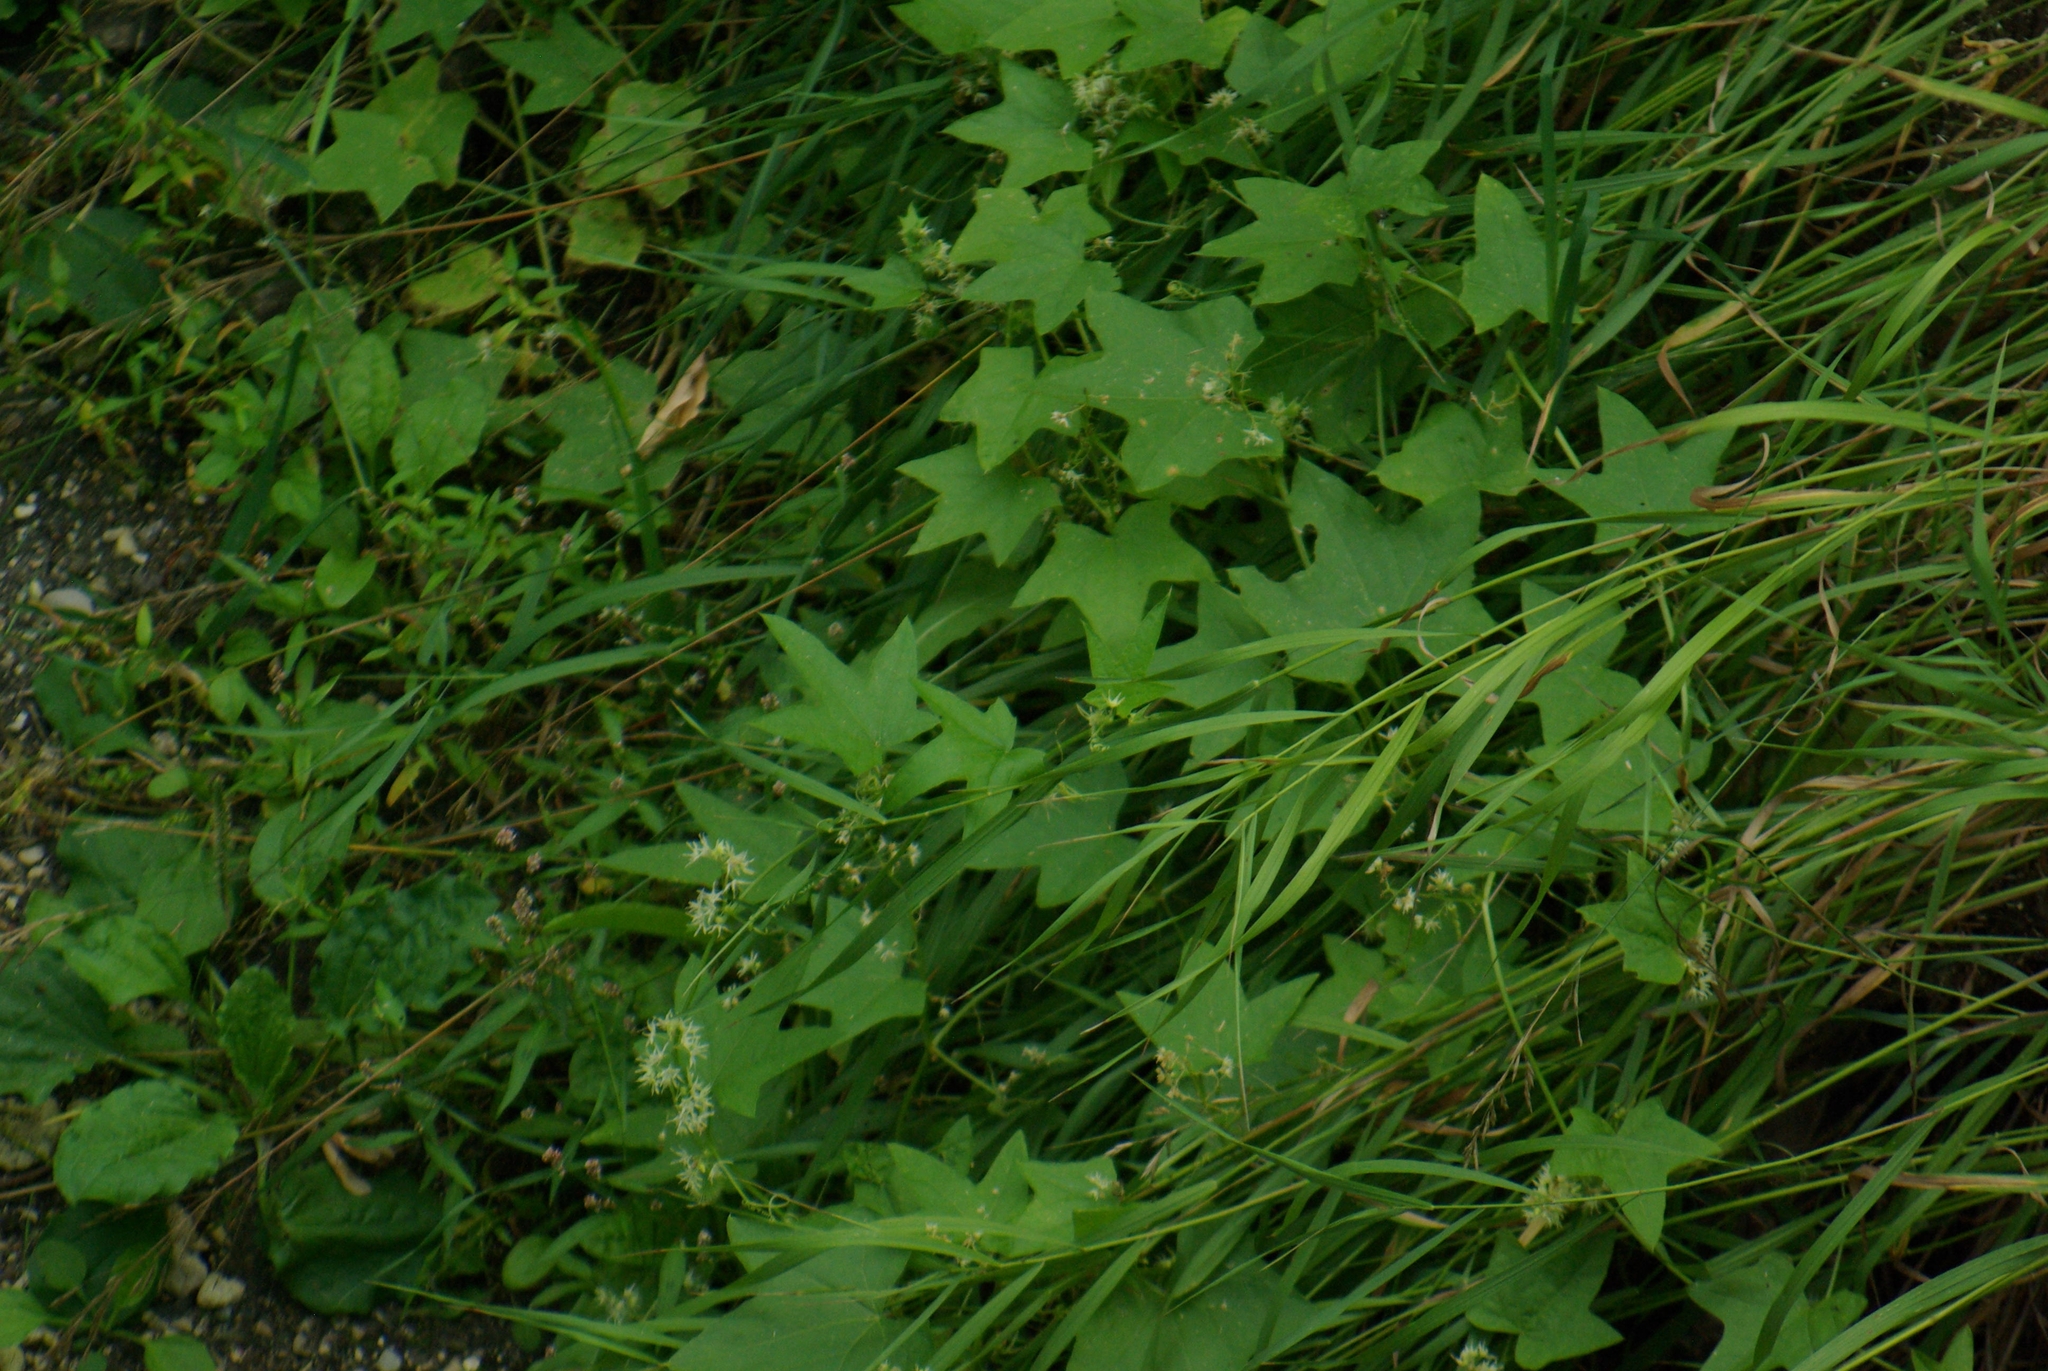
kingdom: Plantae
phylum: Tracheophyta
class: Magnoliopsida
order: Cucurbitales
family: Cucurbitaceae
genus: Echinocystis
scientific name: Echinocystis lobata
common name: Wild cucumber
